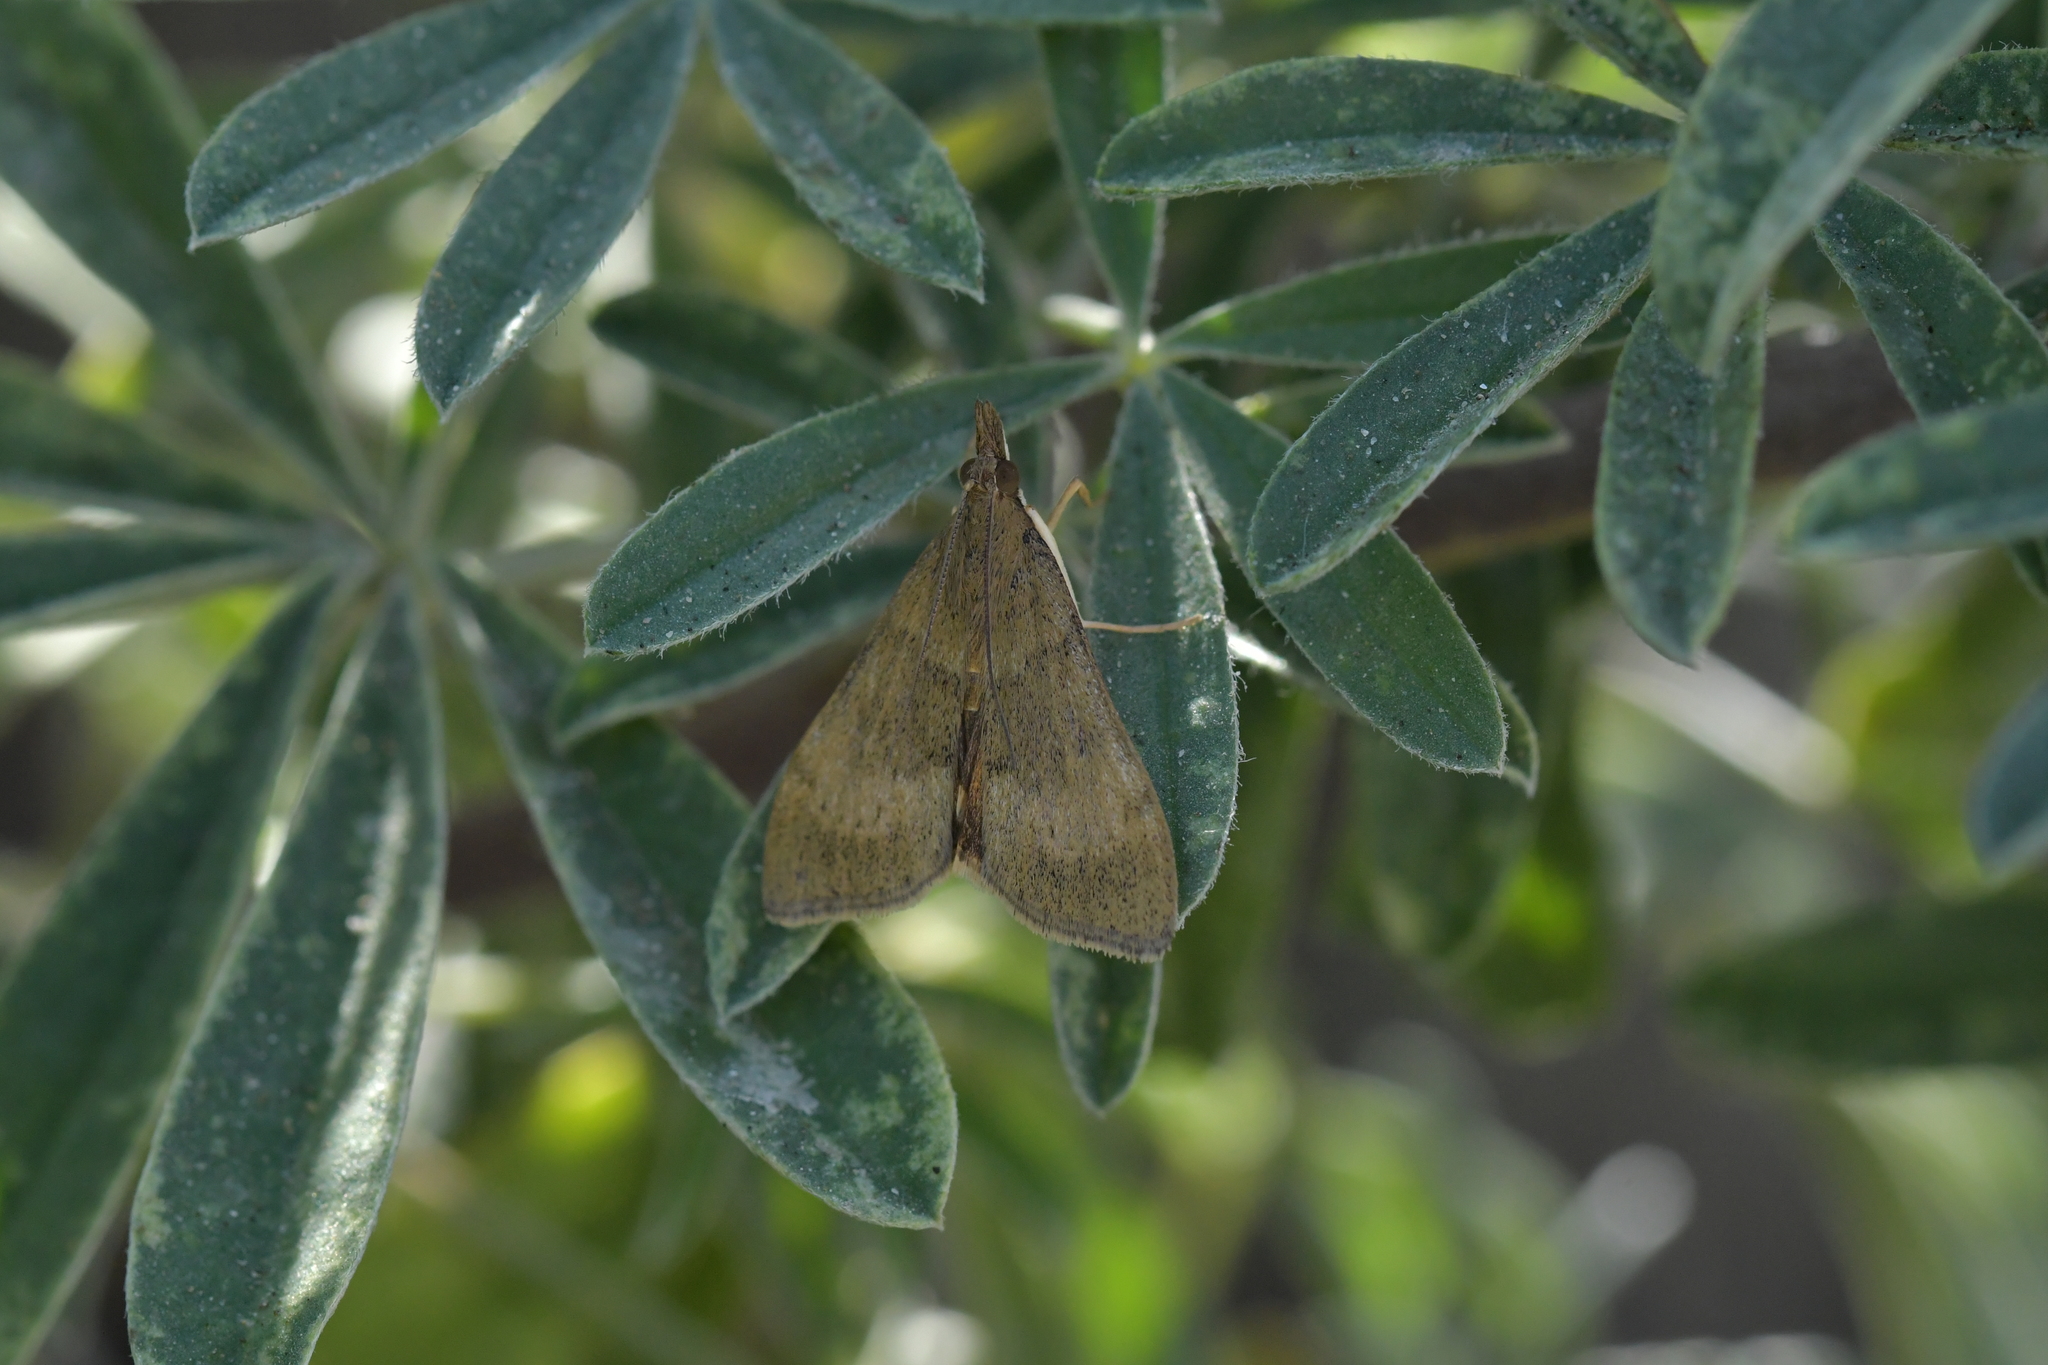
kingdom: Animalia
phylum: Arthropoda
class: Insecta
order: Lepidoptera
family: Crambidae
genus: Uresiphita
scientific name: Uresiphita
